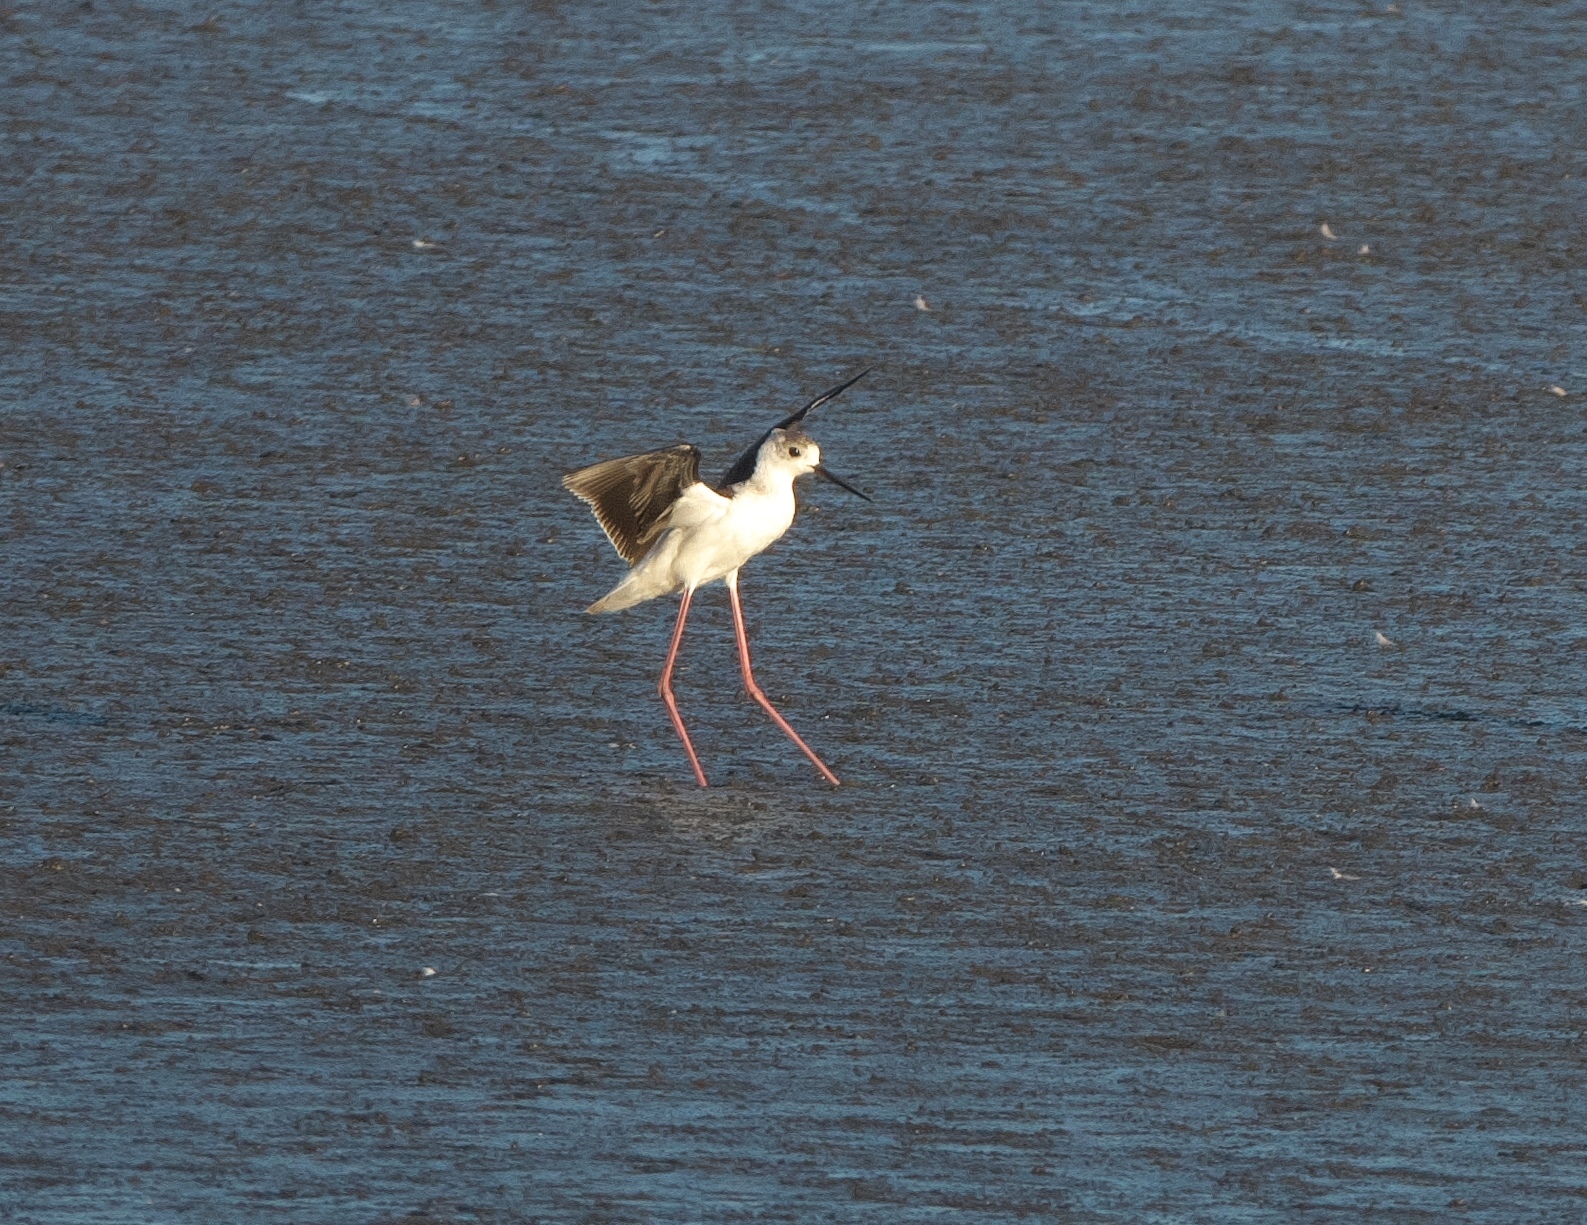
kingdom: Animalia
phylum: Chordata
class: Aves
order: Charadriiformes
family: Recurvirostridae
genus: Himantopus
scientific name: Himantopus leucocephalus
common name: White-headed stilt
